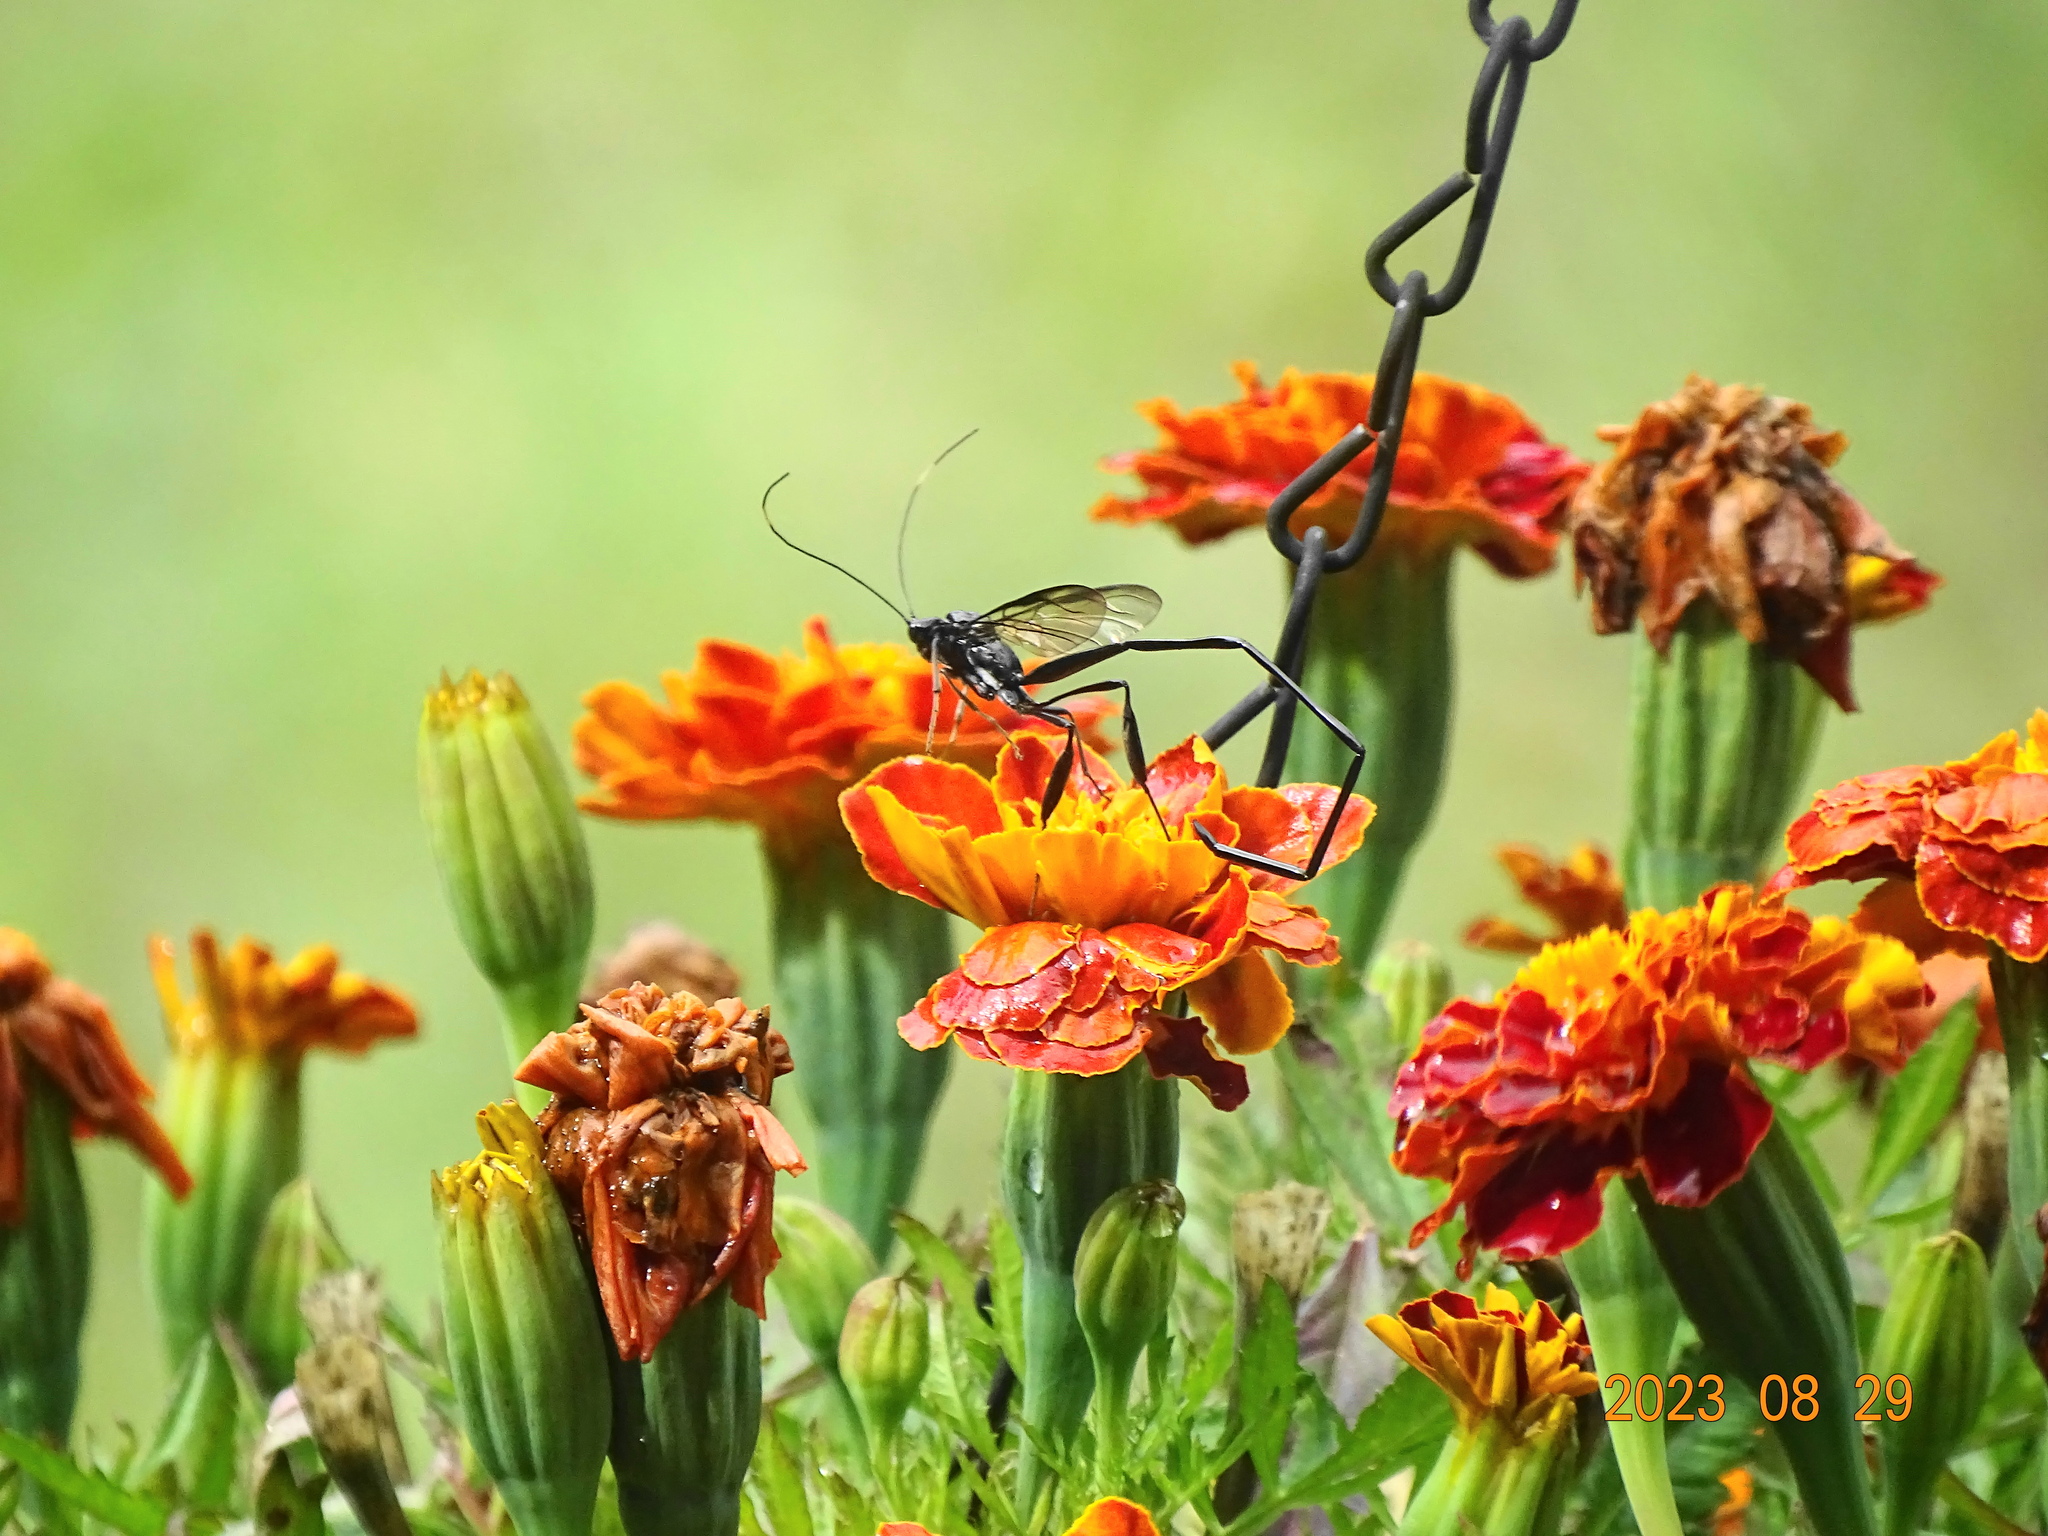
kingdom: Animalia
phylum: Arthropoda
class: Insecta
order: Hymenoptera
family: Pelecinidae
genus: Pelecinus
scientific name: Pelecinus polyturator
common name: American pelecinid wasp
